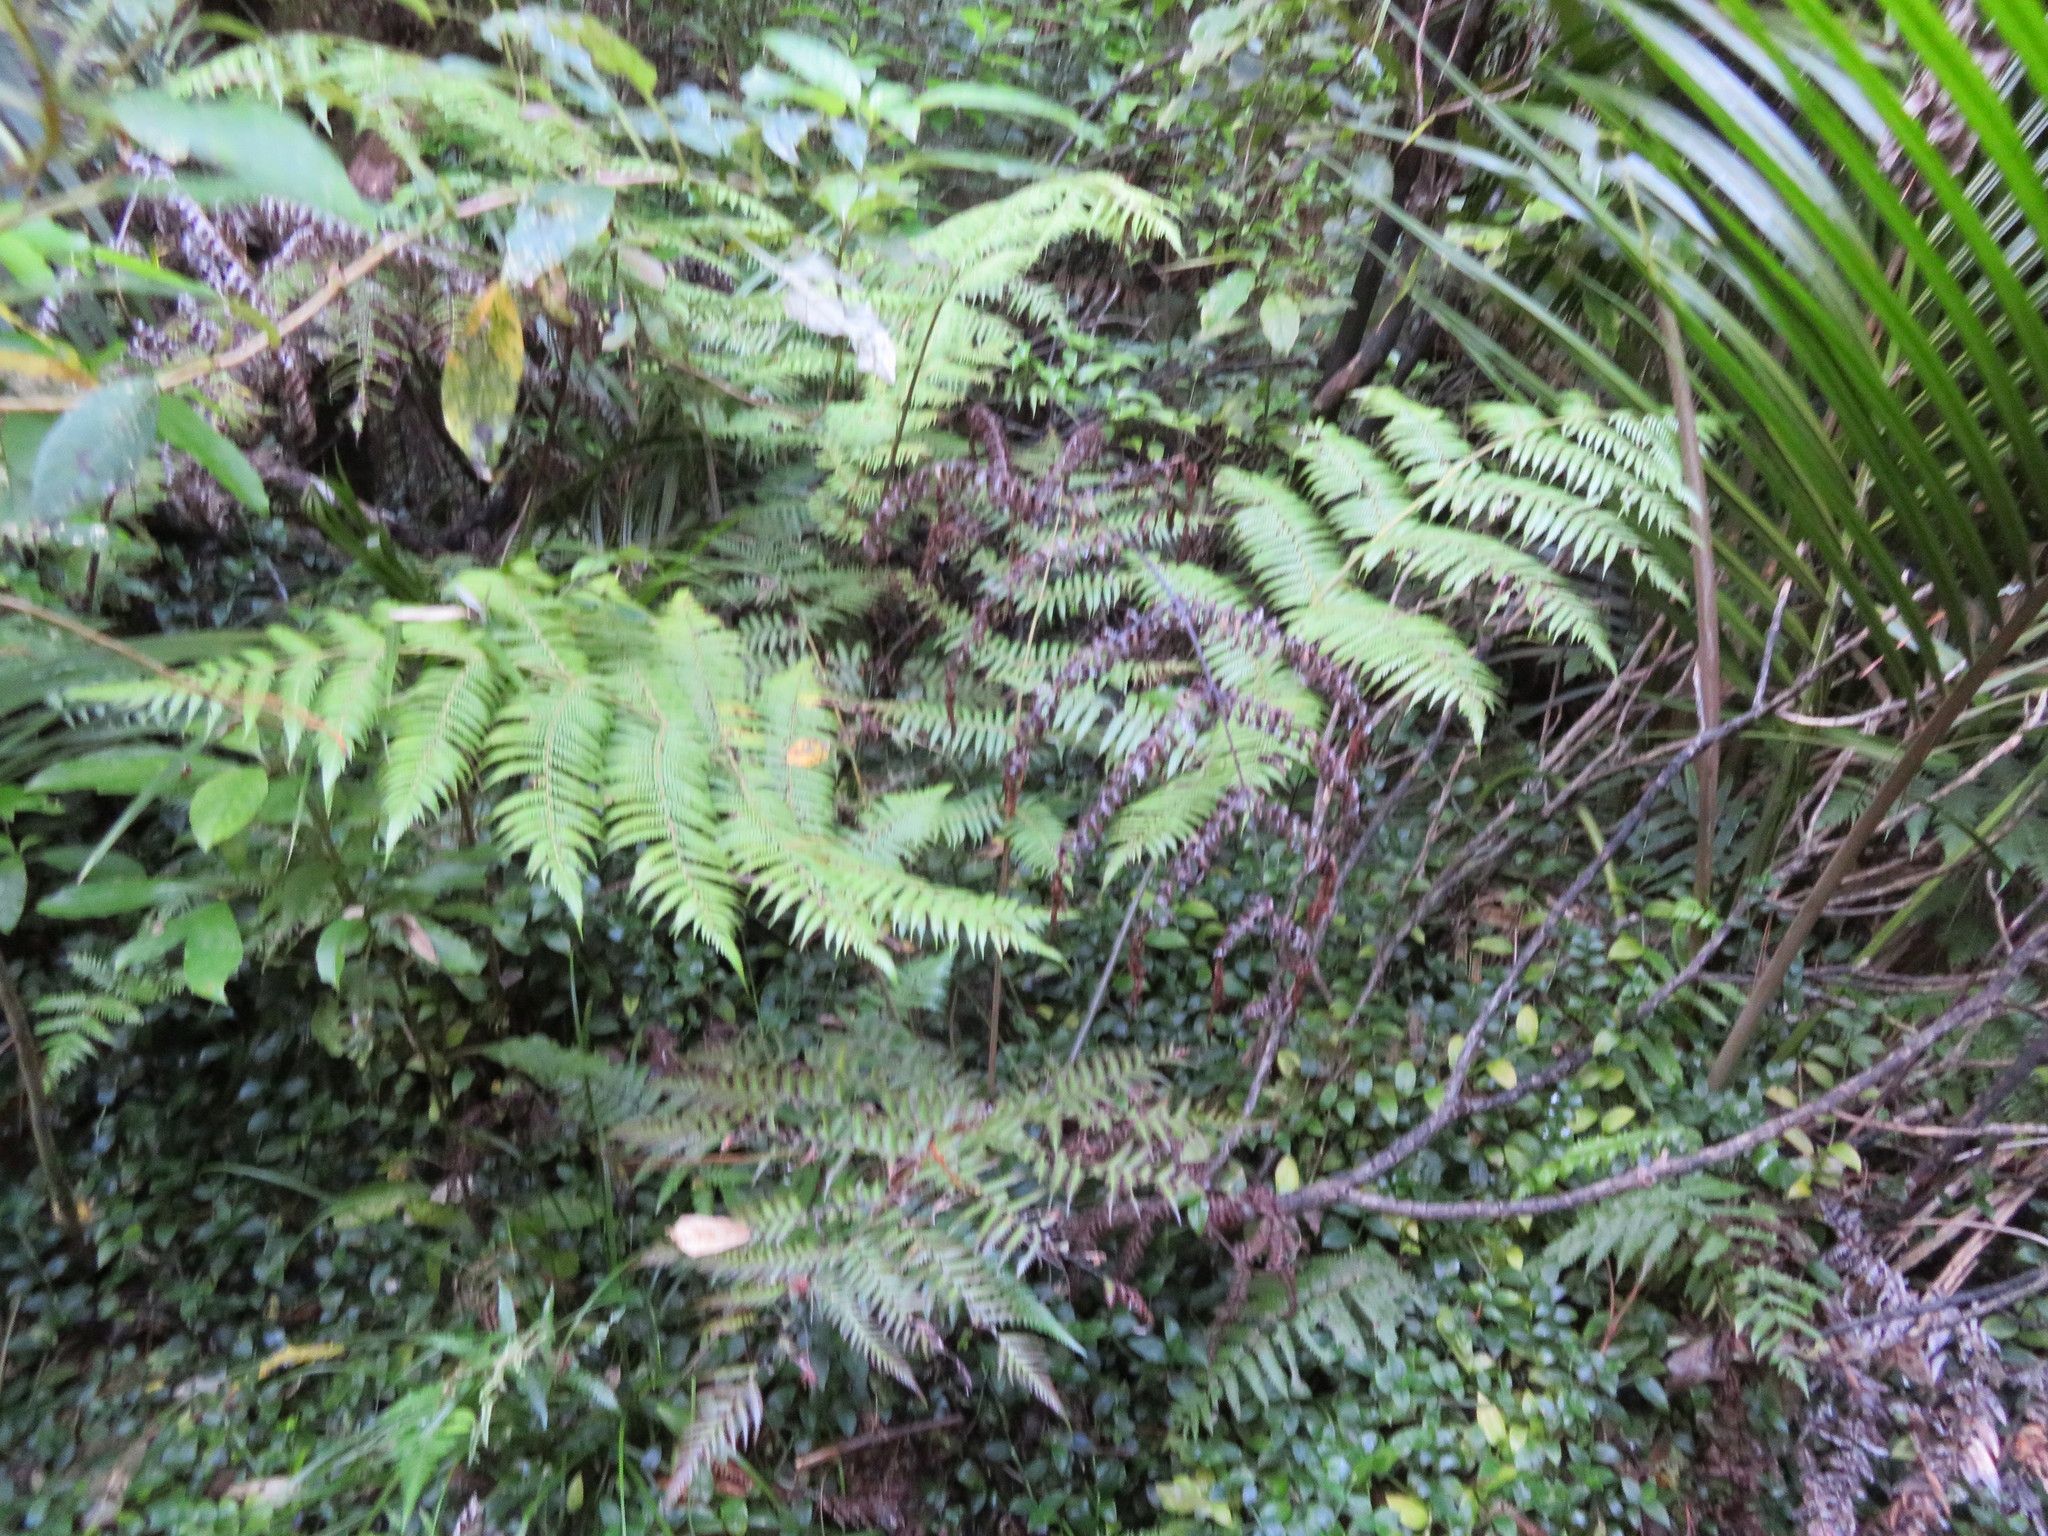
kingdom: Plantae
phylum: Tracheophyta
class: Liliopsida
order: Arecales
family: Arecaceae
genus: Rhopalostylis
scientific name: Rhopalostylis sapida
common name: Feather-duster palm
